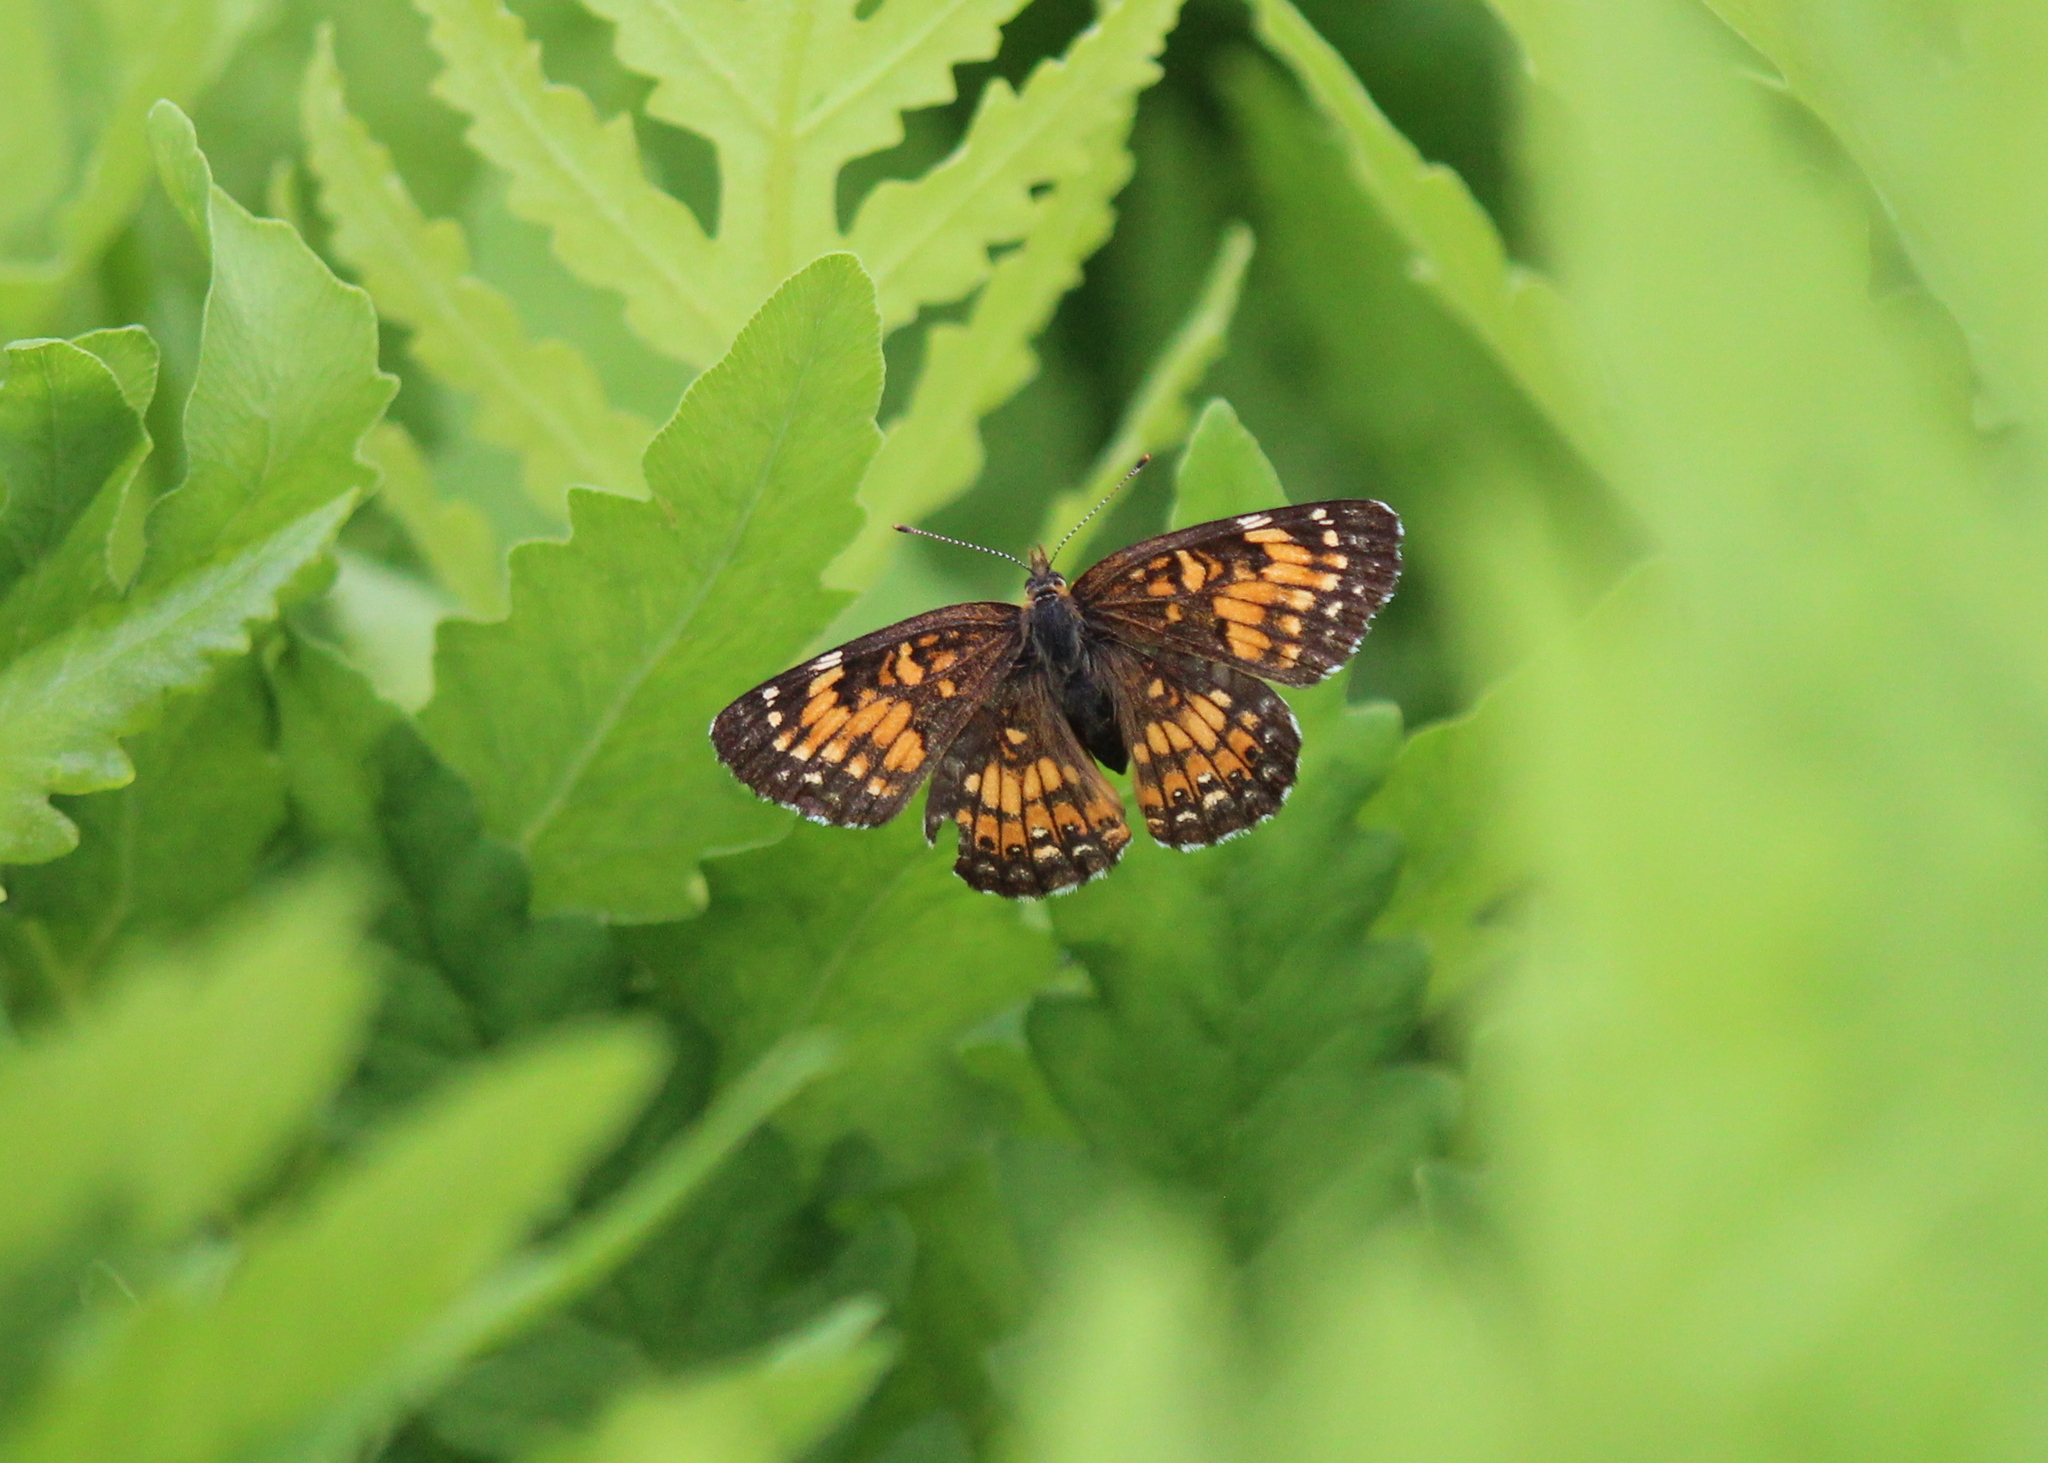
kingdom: Animalia
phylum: Arthropoda
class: Insecta
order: Lepidoptera
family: Nymphalidae
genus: Chlosyne
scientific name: Chlosyne harrisii
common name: Harris's checkerspot
